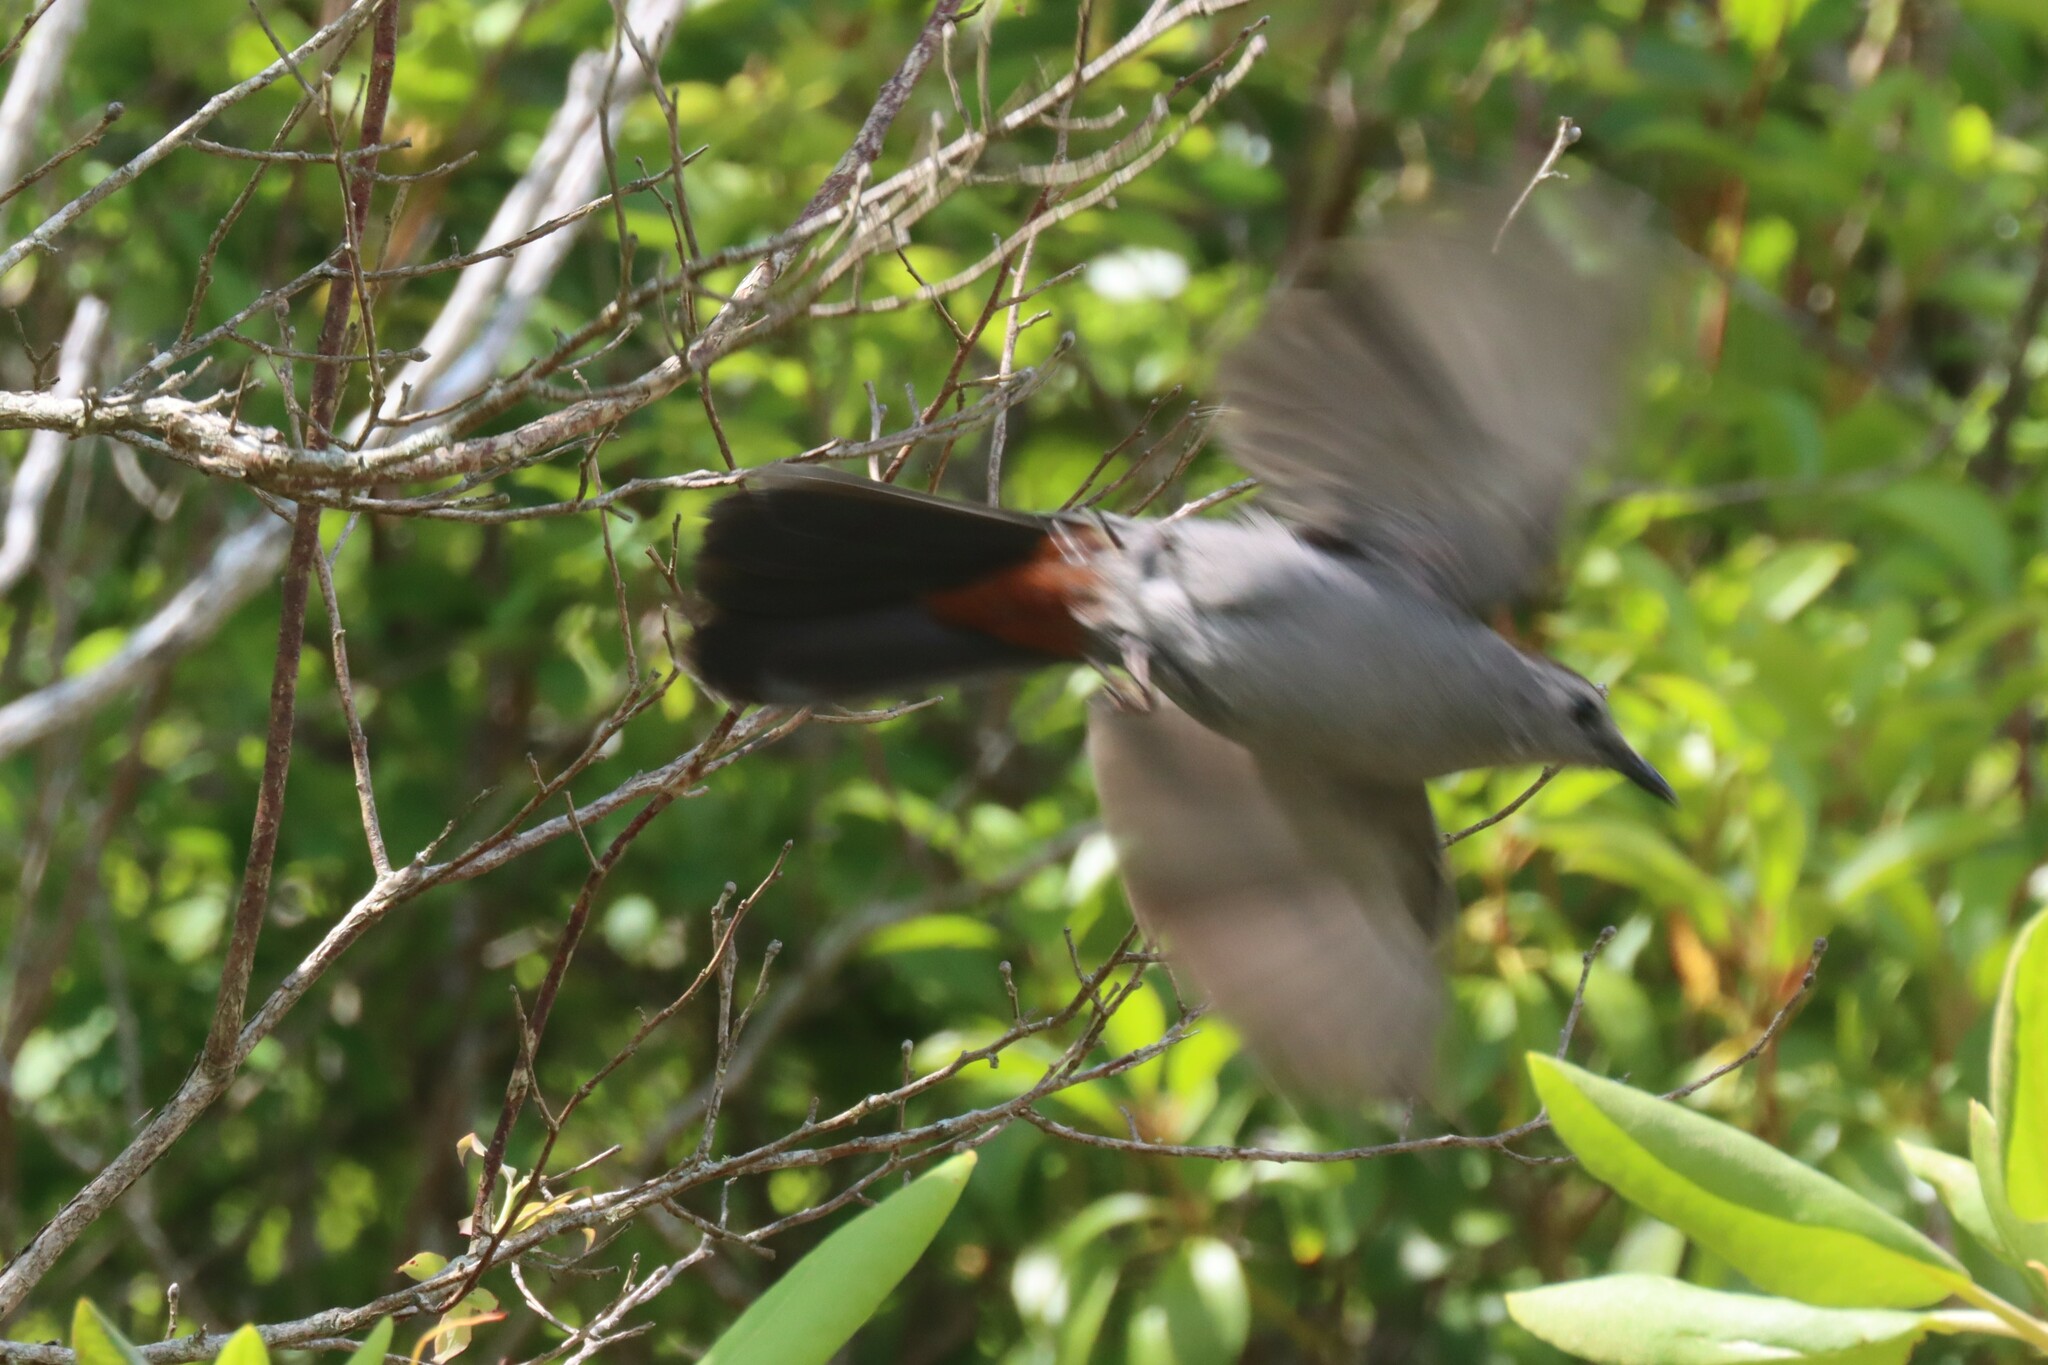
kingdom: Animalia
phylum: Chordata
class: Aves
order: Passeriformes
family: Mimidae
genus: Dumetella
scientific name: Dumetella carolinensis
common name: Gray catbird
